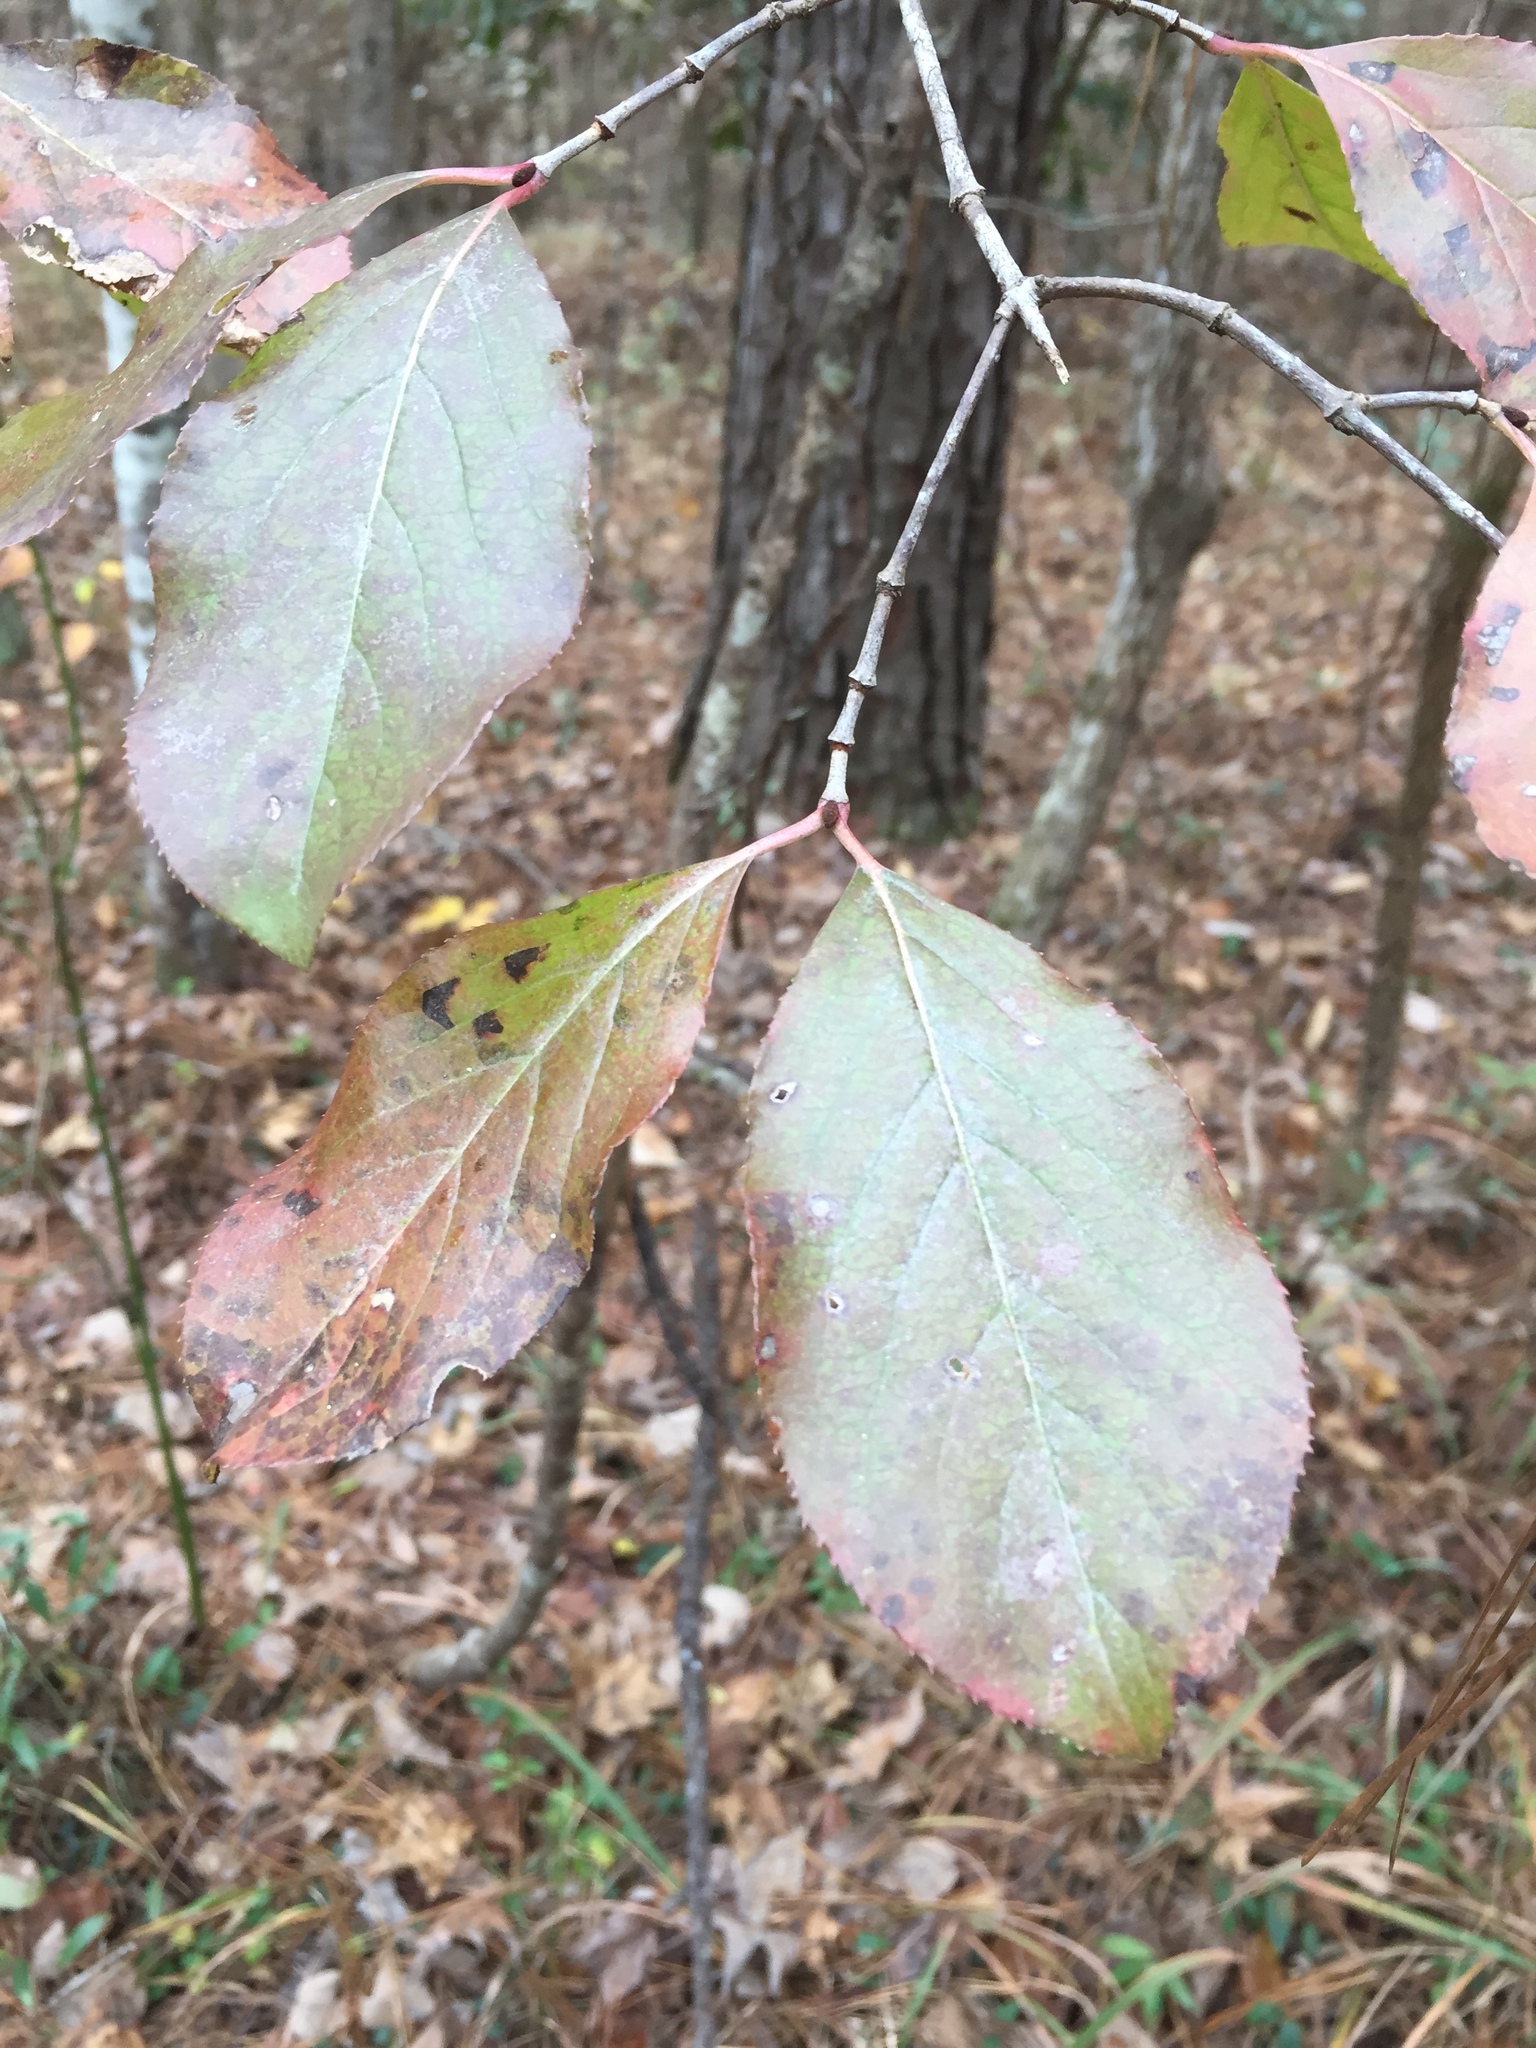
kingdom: Plantae
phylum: Tracheophyta
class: Magnoliopsida
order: Dipsacales
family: Viburnaceae
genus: Viburnum
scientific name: Viburnum rufidulum
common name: Blue haw
